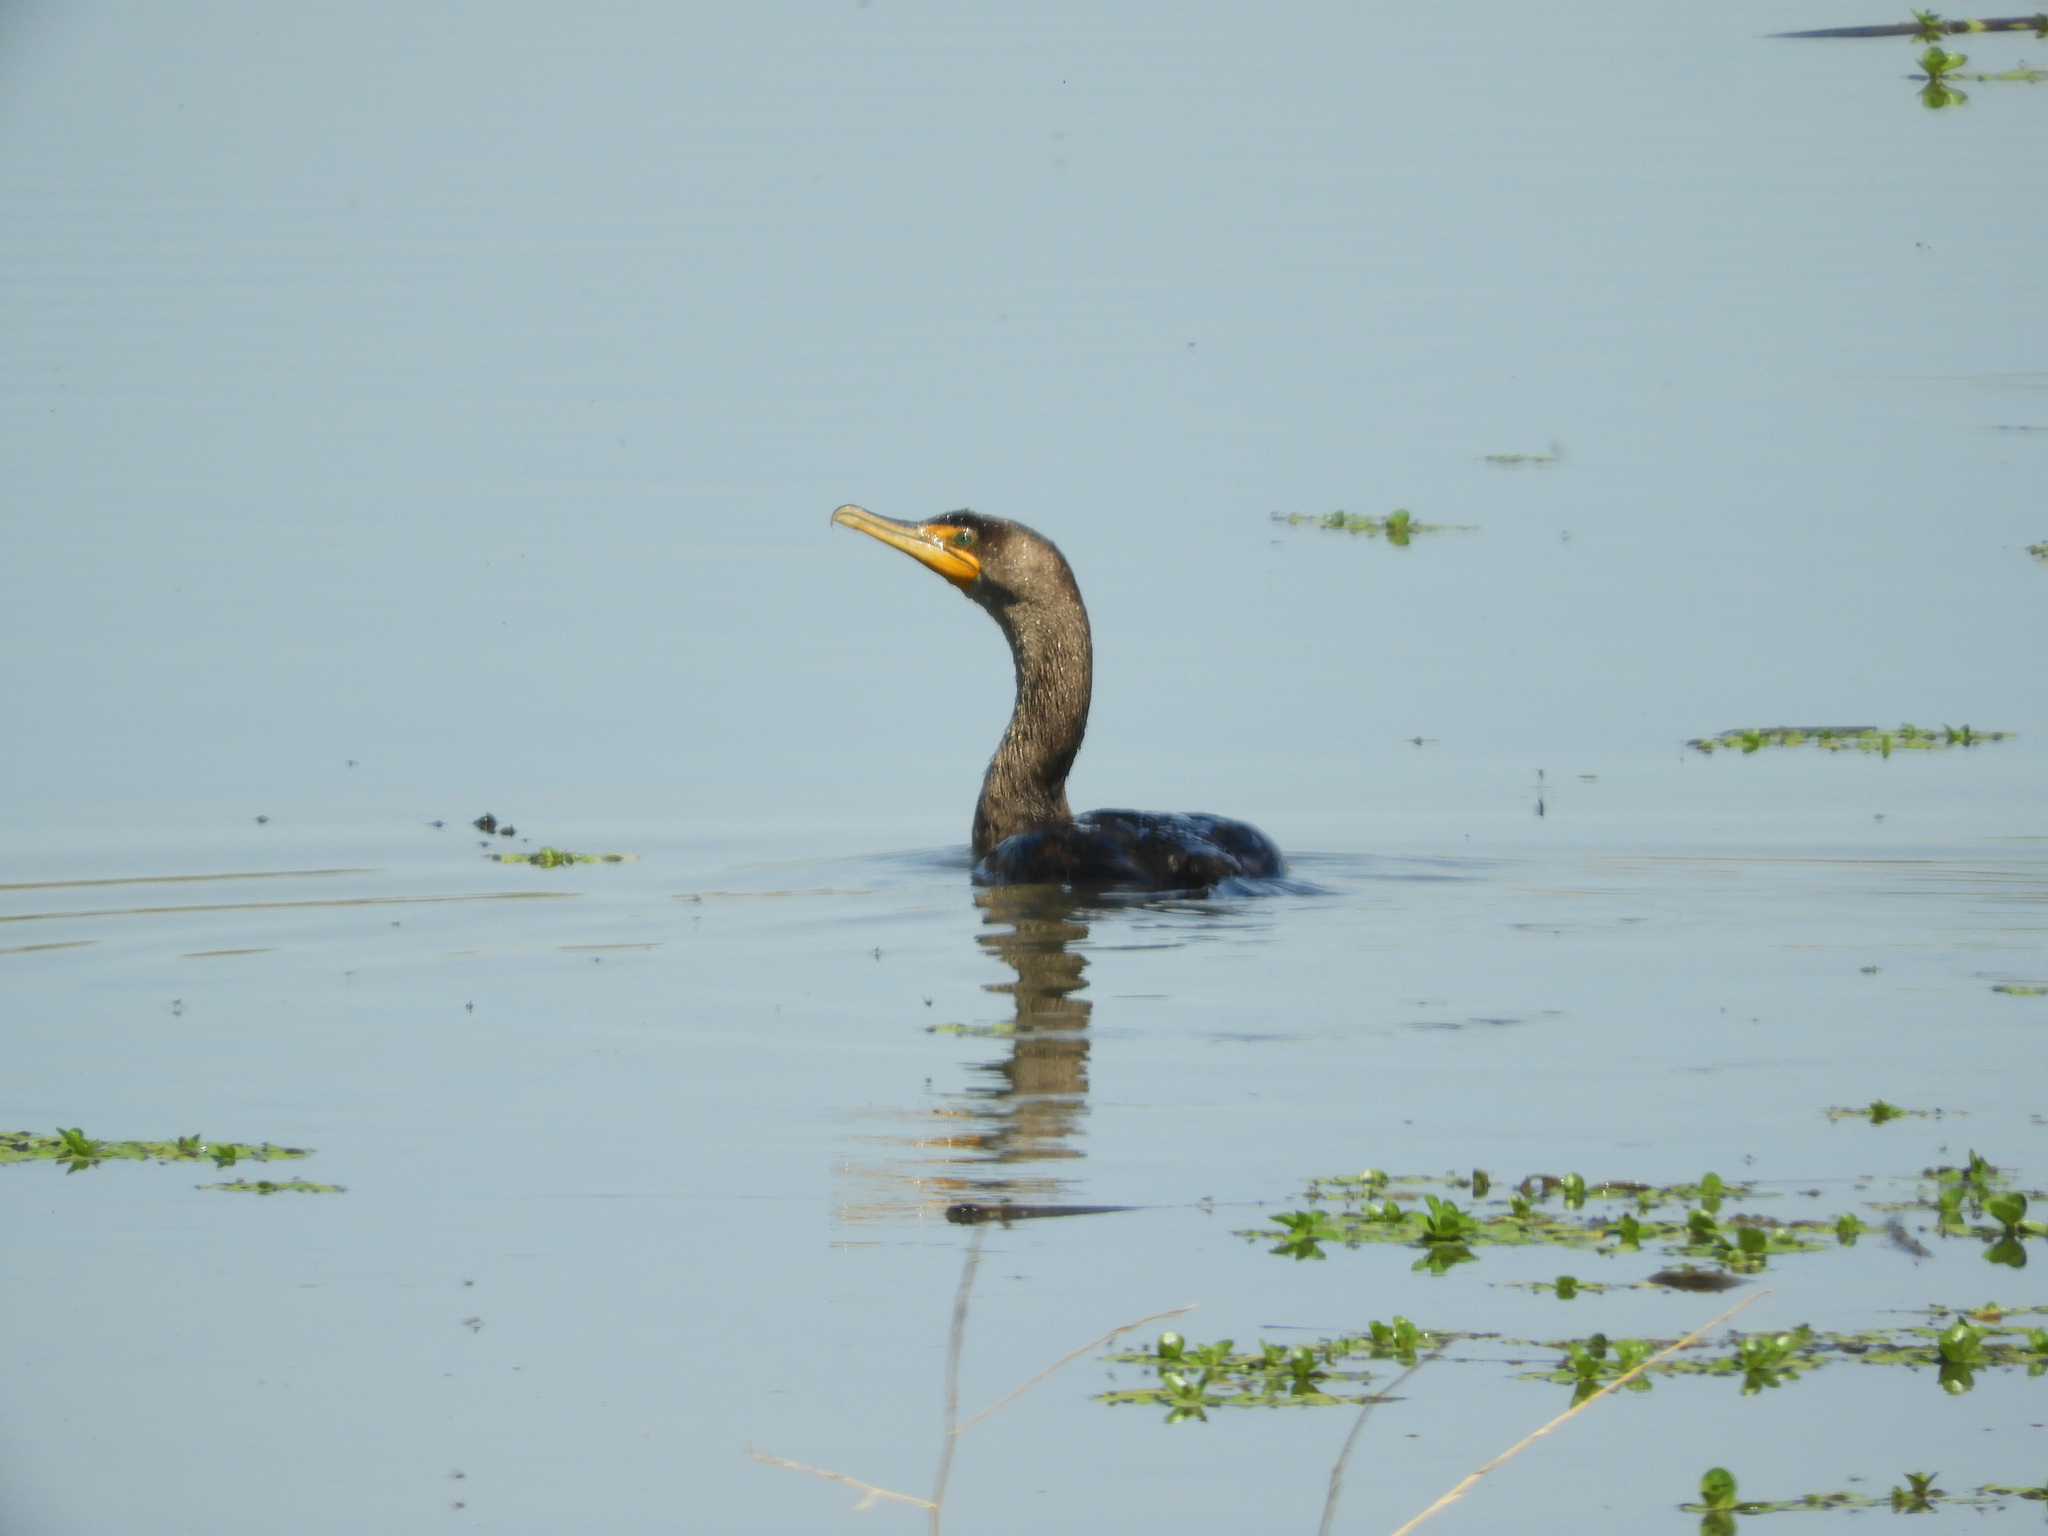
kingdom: Animalia
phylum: Chordata
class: Aves
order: Suliformes
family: Phalacrocoracidae
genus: Phalacrocorax
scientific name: Phalacrocorax auritus
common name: Double-crested cormorant
